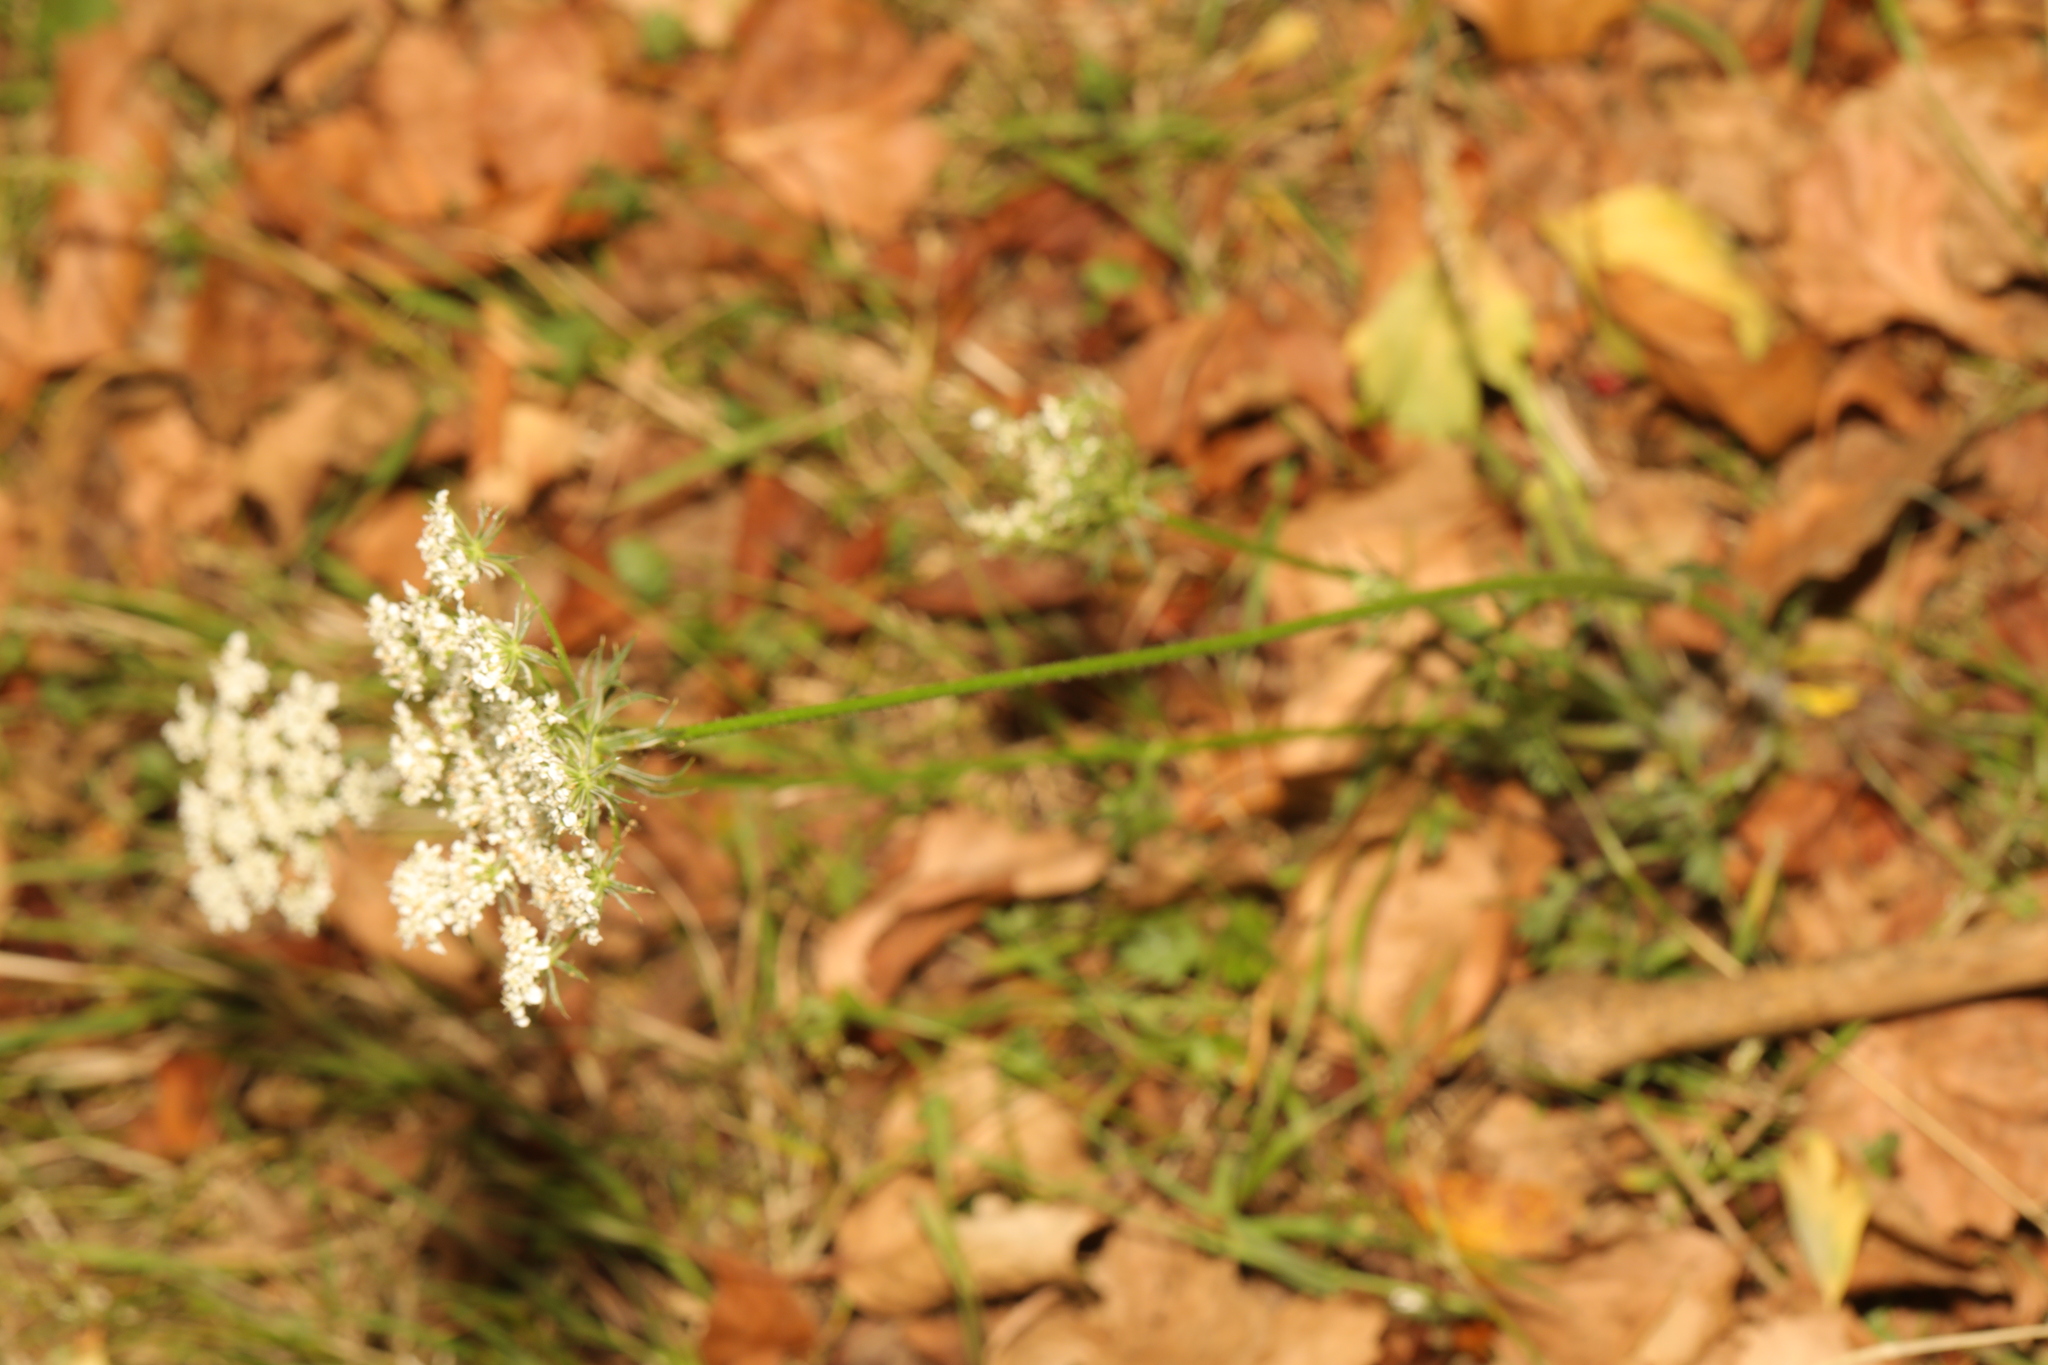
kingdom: Plantae
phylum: Tracheophyta
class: Magnoliopsida
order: Apiales
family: Apiaceae
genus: Daucus
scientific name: Daucus carota
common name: Wild carrot
